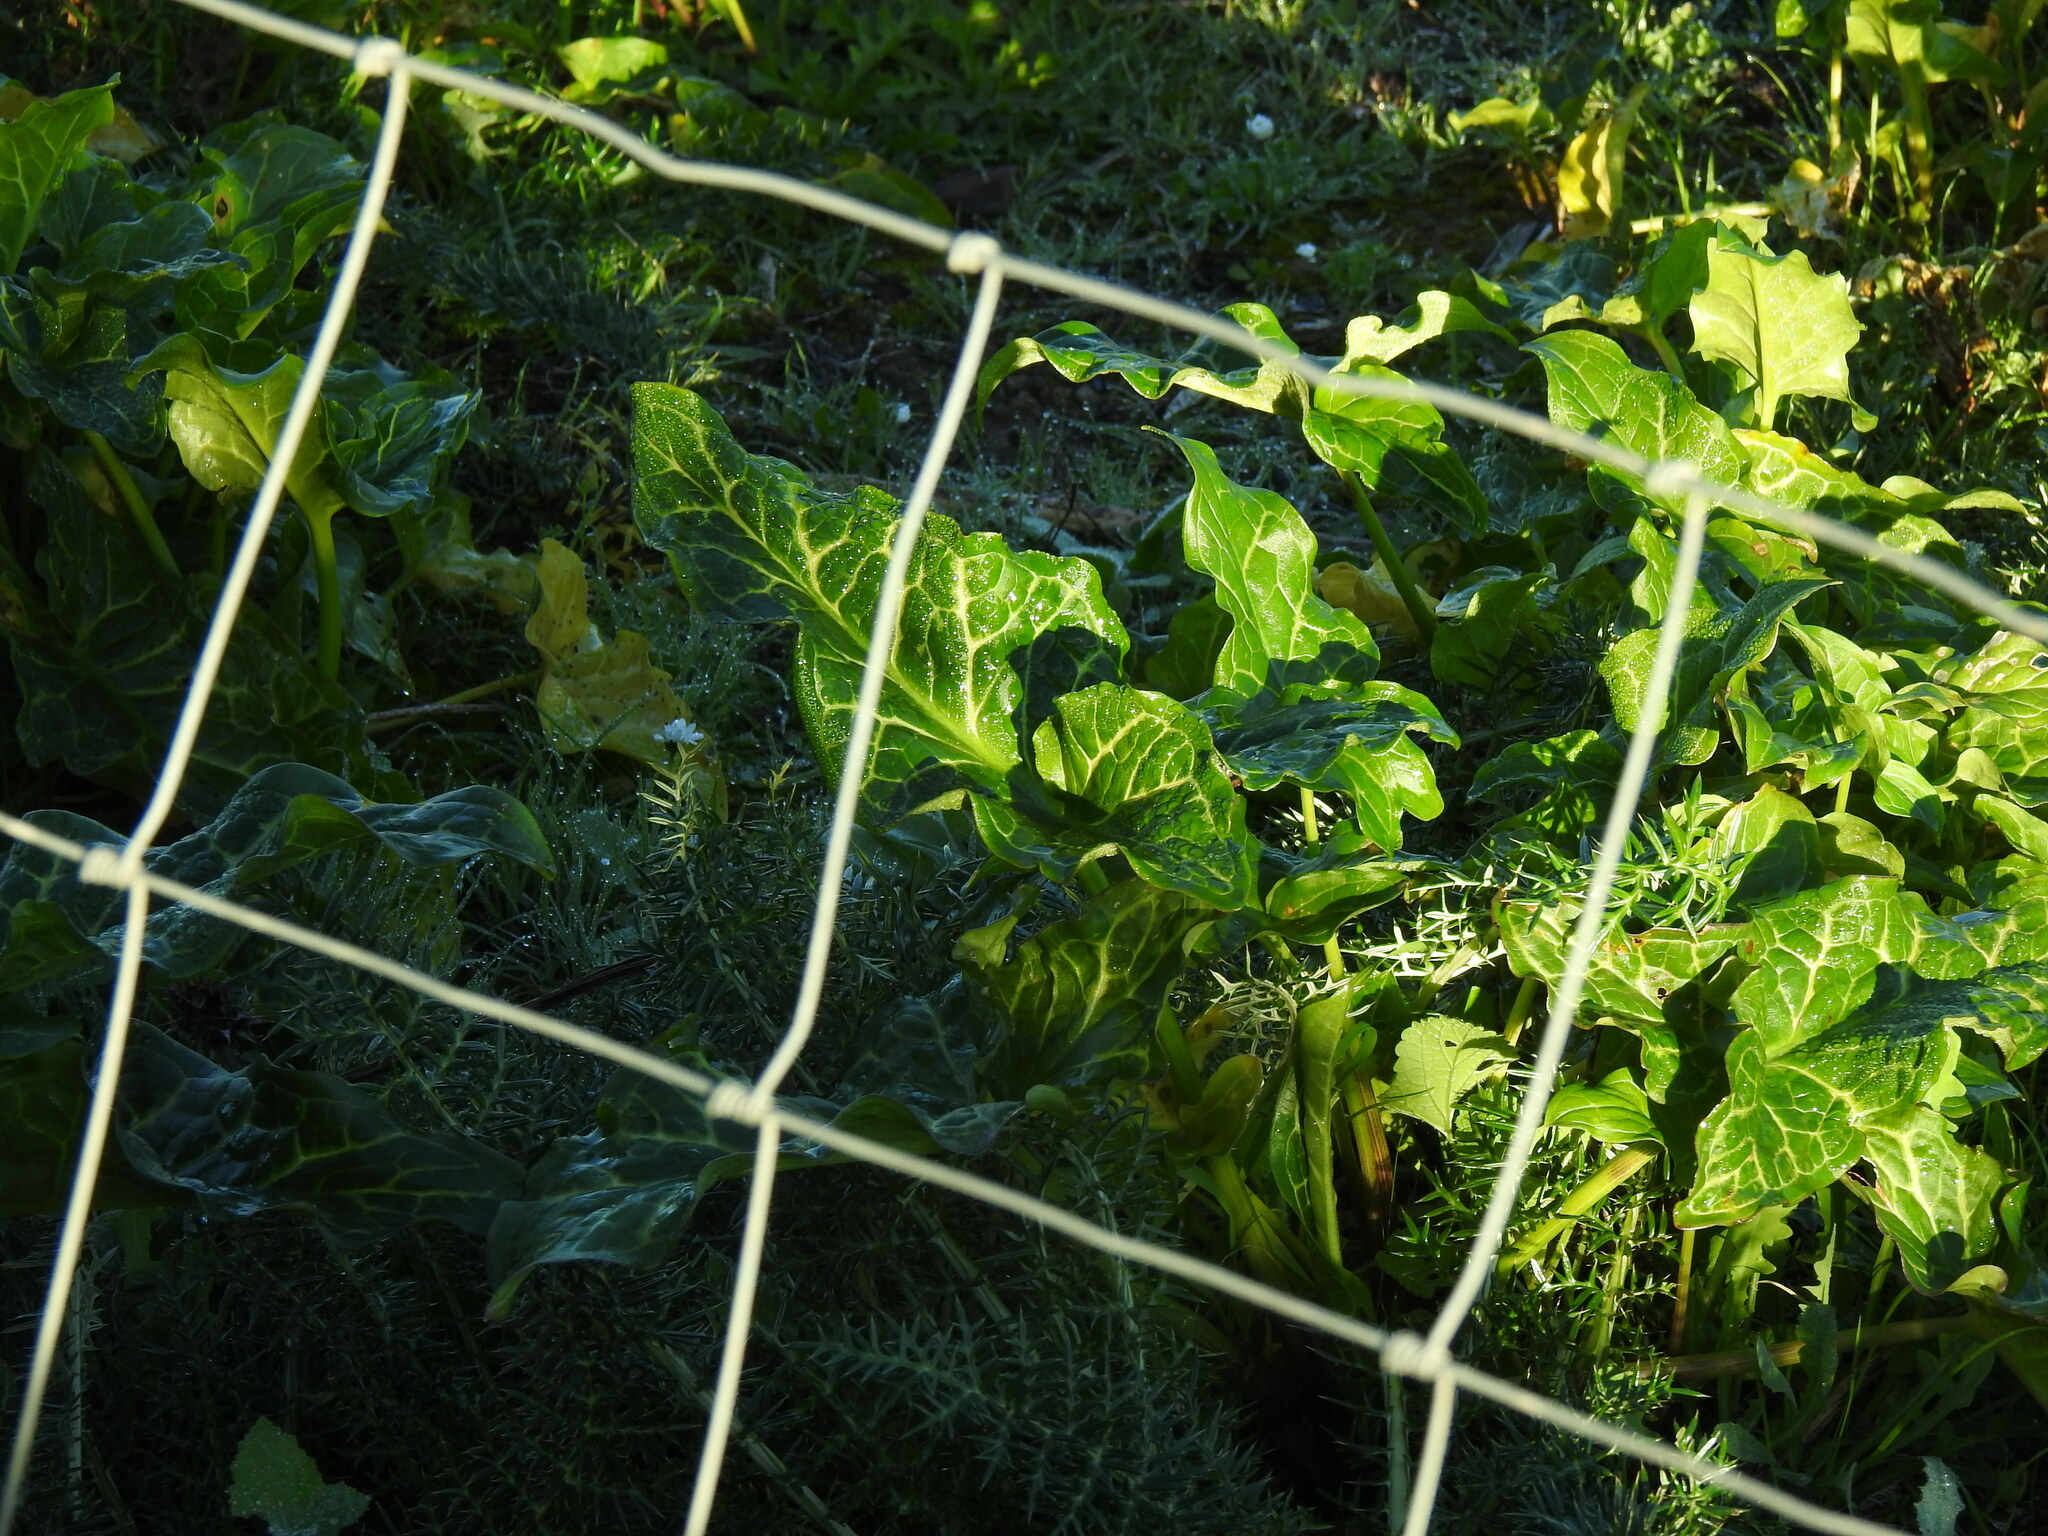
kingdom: Plantae
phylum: Tracheophyta
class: Liliopsida
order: Alismatales
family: Araceae
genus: Arum
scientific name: Arum italicum
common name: Italian lords-and-ladies
